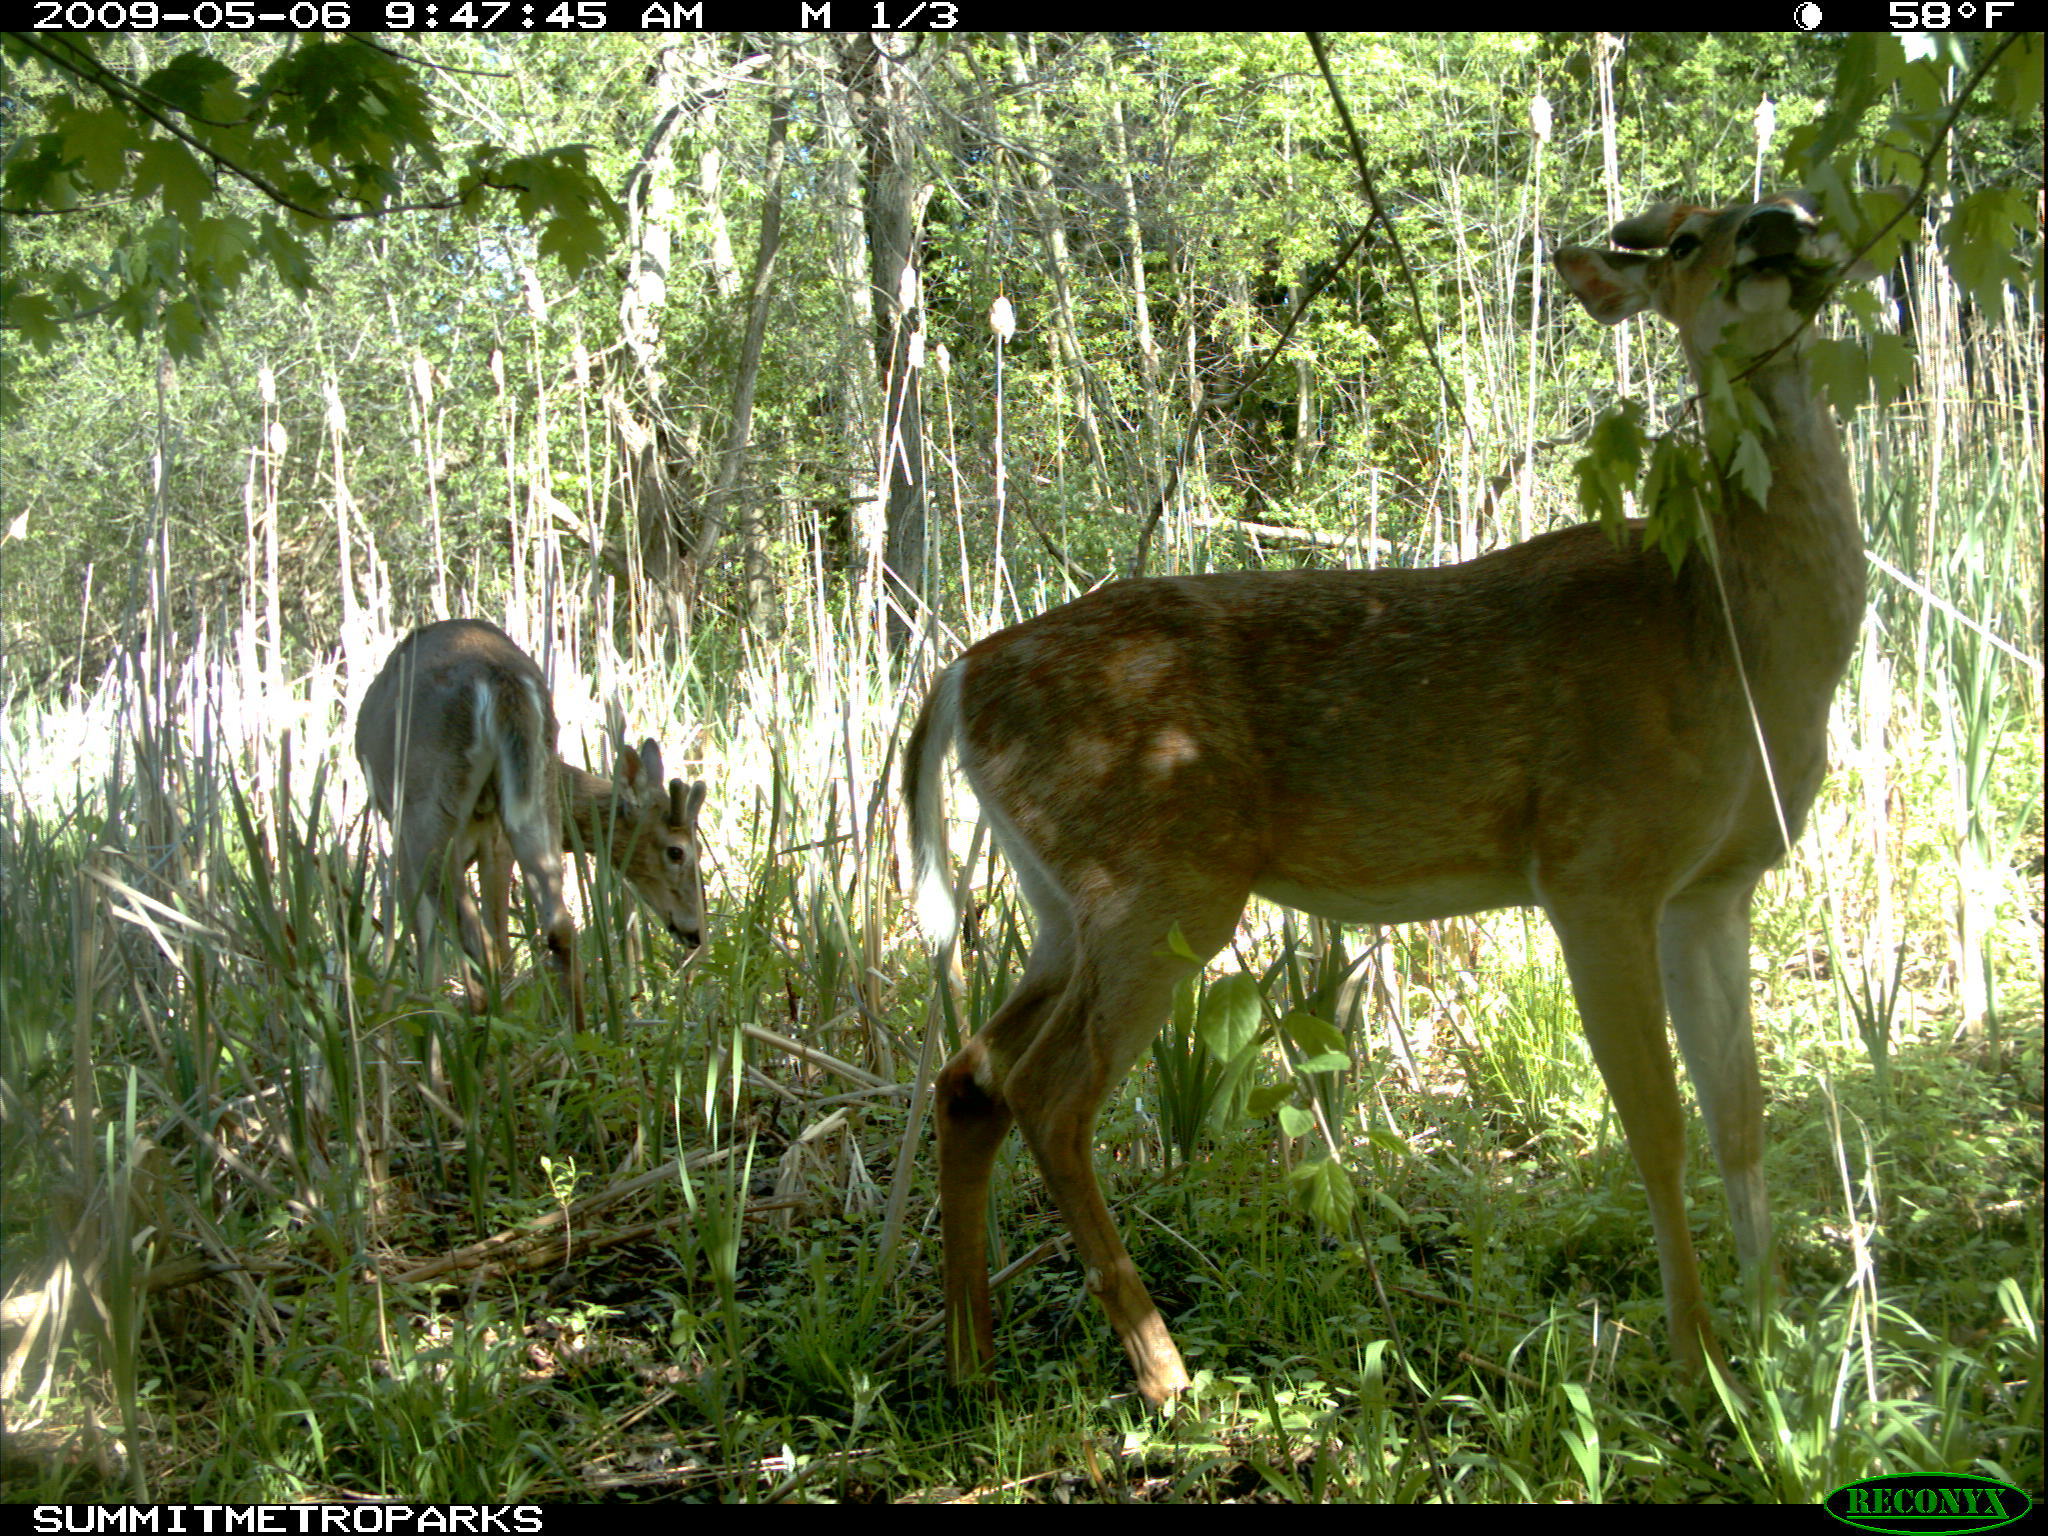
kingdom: Animalia
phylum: Chordata
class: Mammalia
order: Artiodactyla
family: Cervidae
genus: Odocoileus
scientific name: Odocoileus virginianus
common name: White-tailed deer
